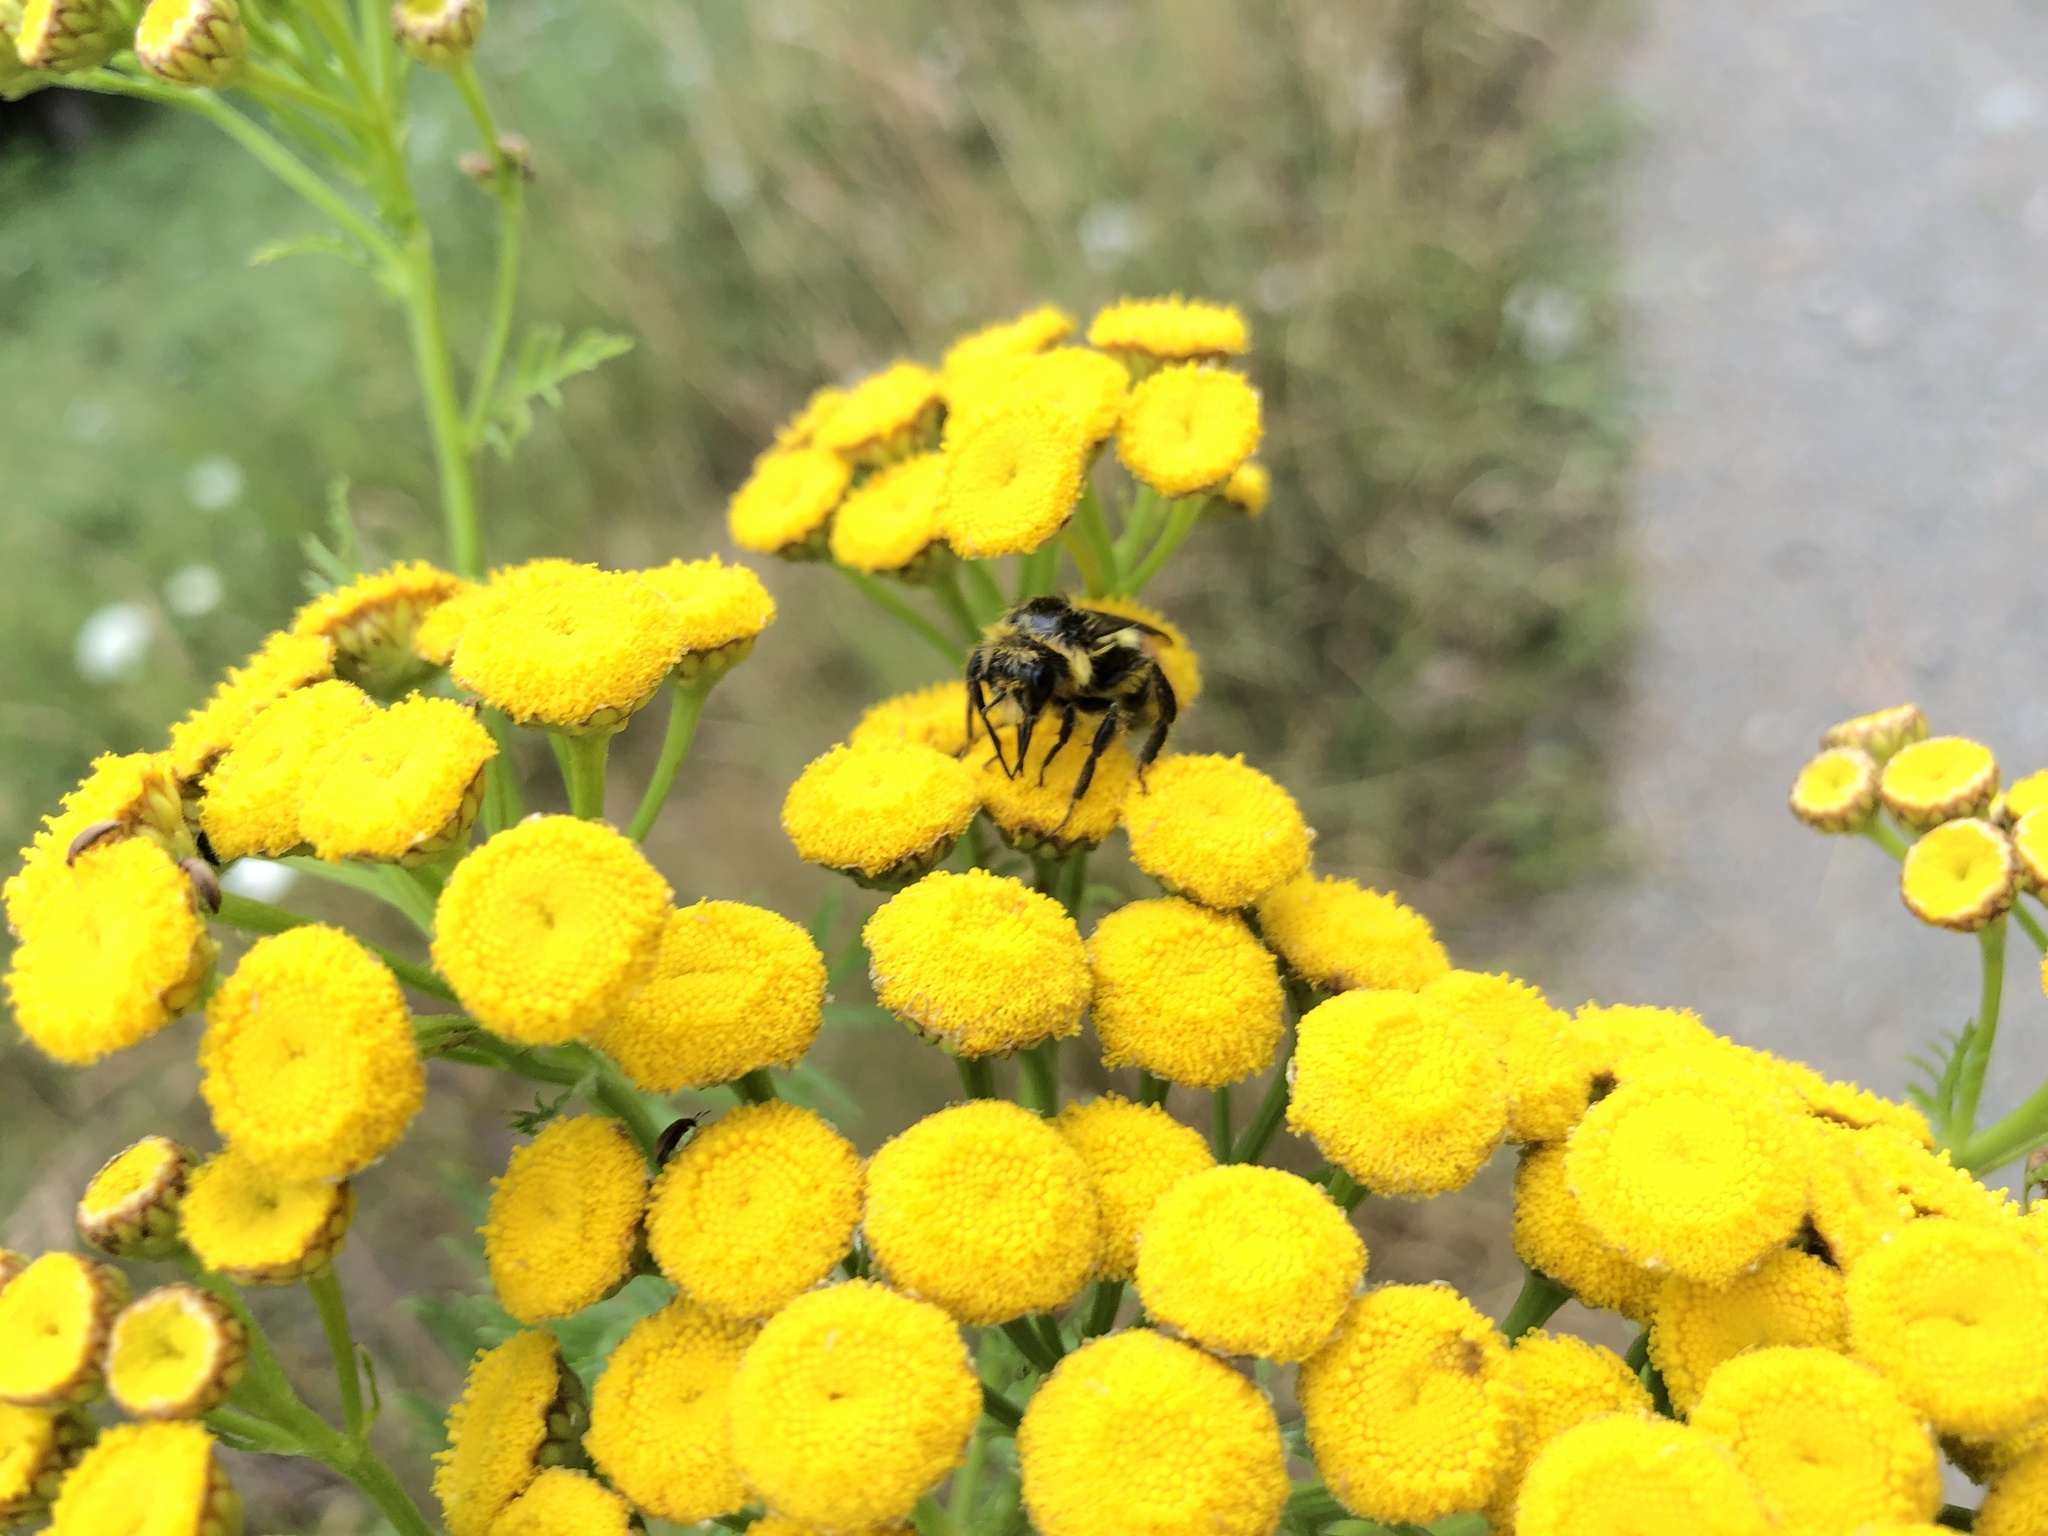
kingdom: Animalia
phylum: Arthropoda
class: Insecta
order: Hymenoptera
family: Apidae
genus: Bombus
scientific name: Bombus vancouverensis
